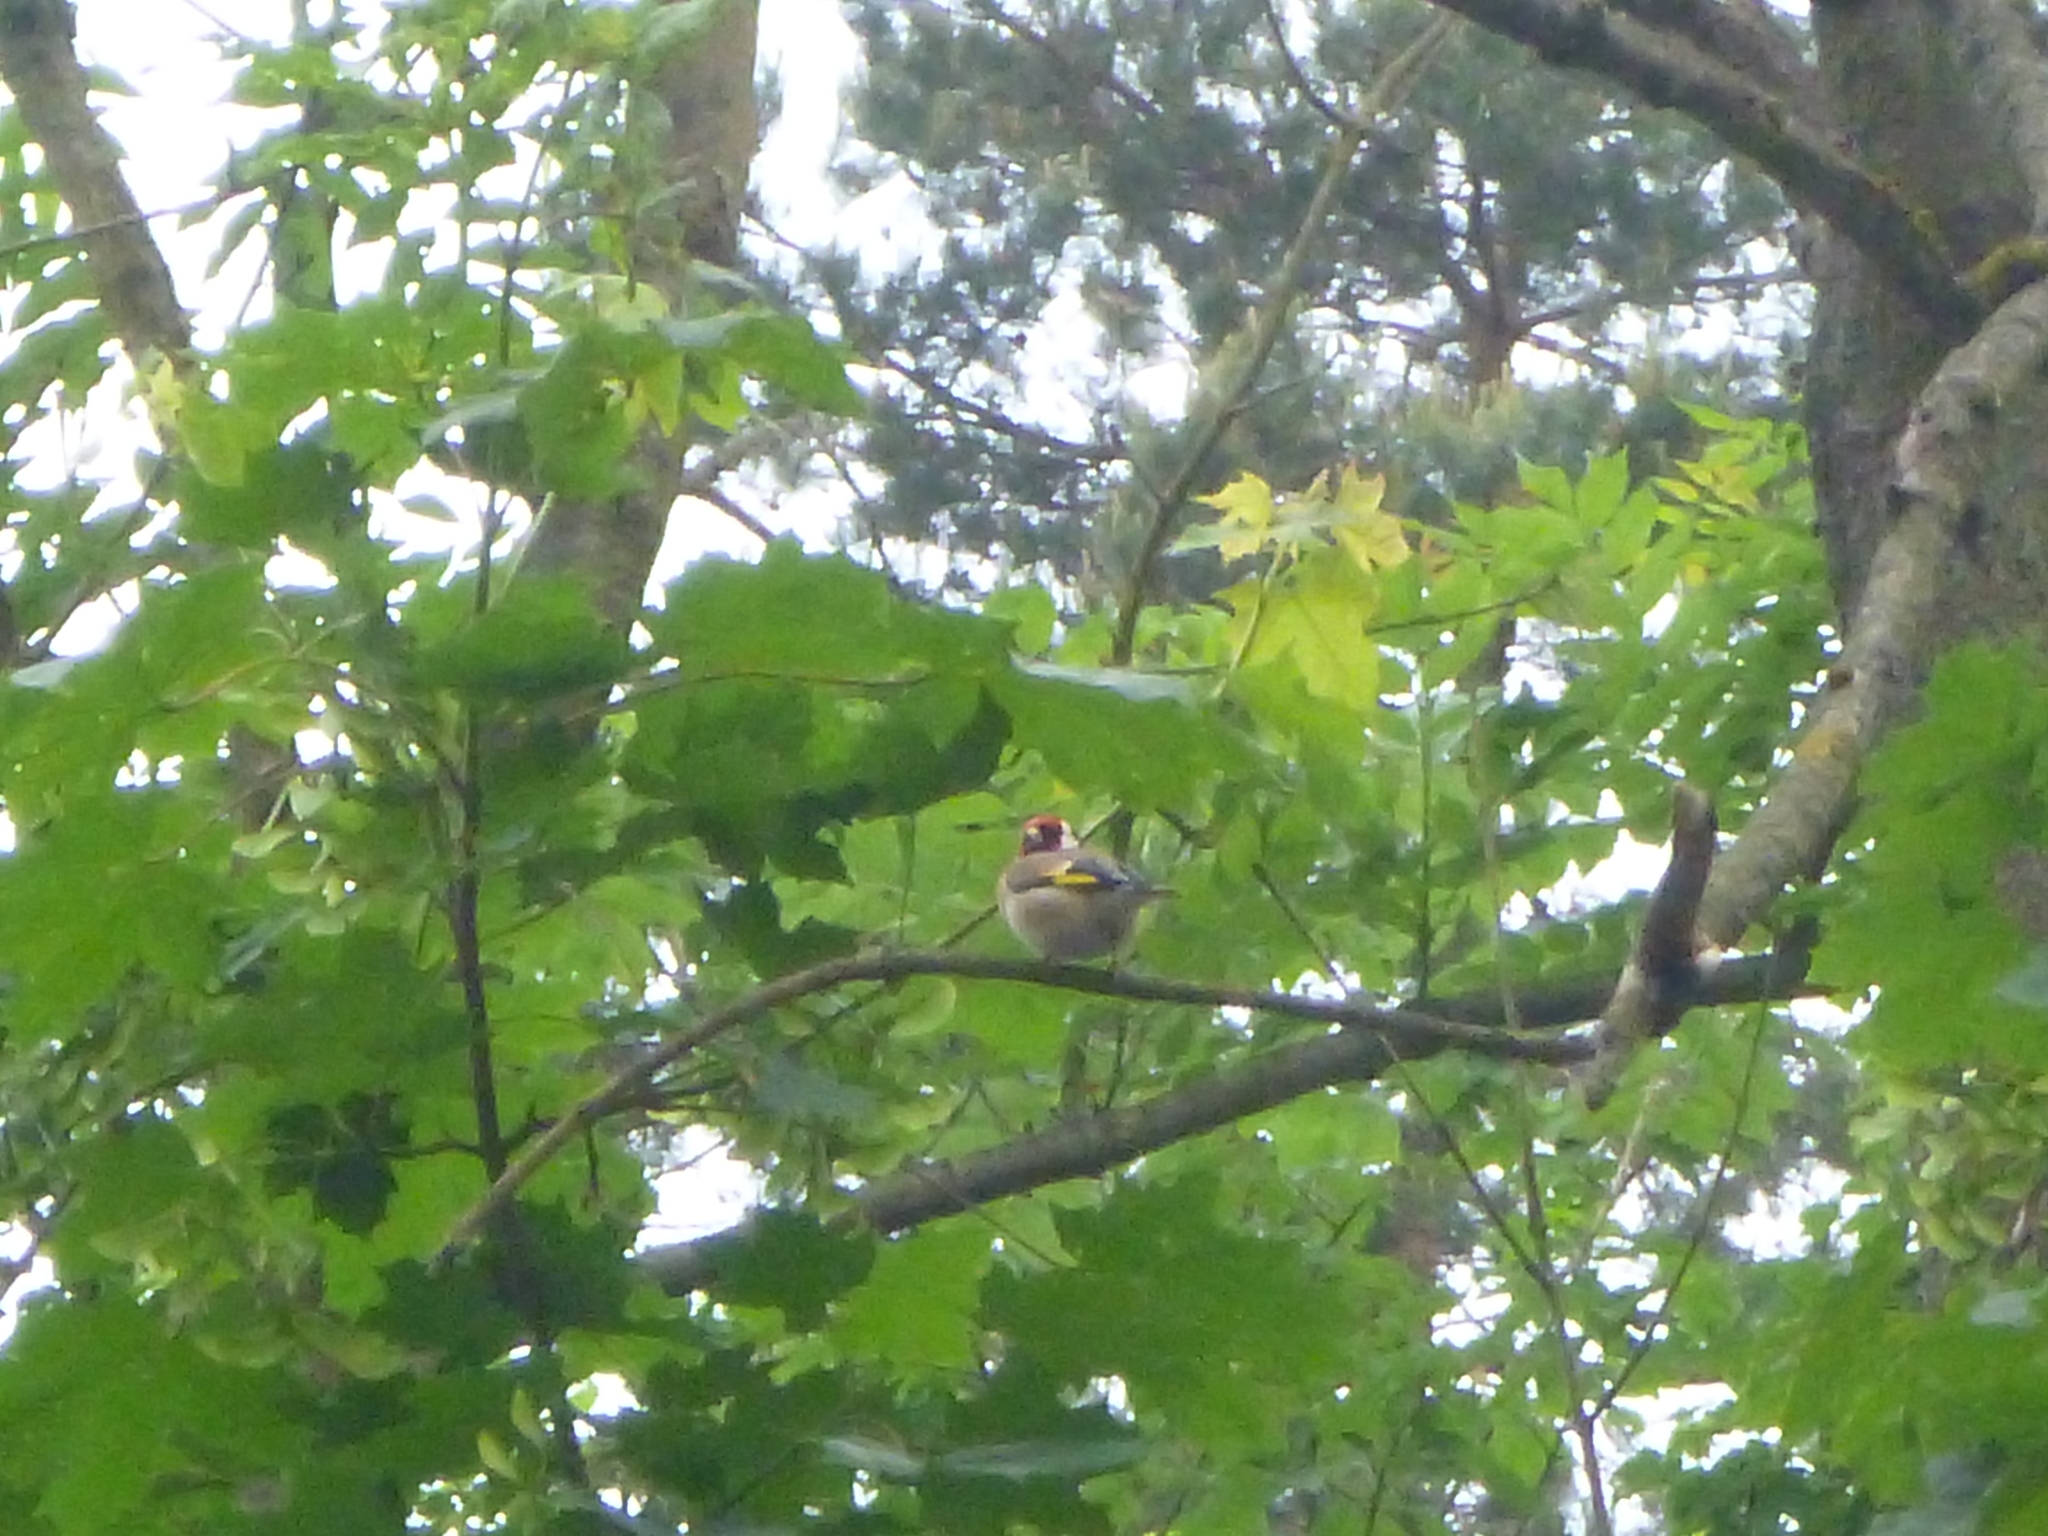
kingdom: Animalia
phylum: Chordata
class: Aves
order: Passeriformes
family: Fringillidae
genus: Carduelis
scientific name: Carduelis carduelis
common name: European goldfinch
